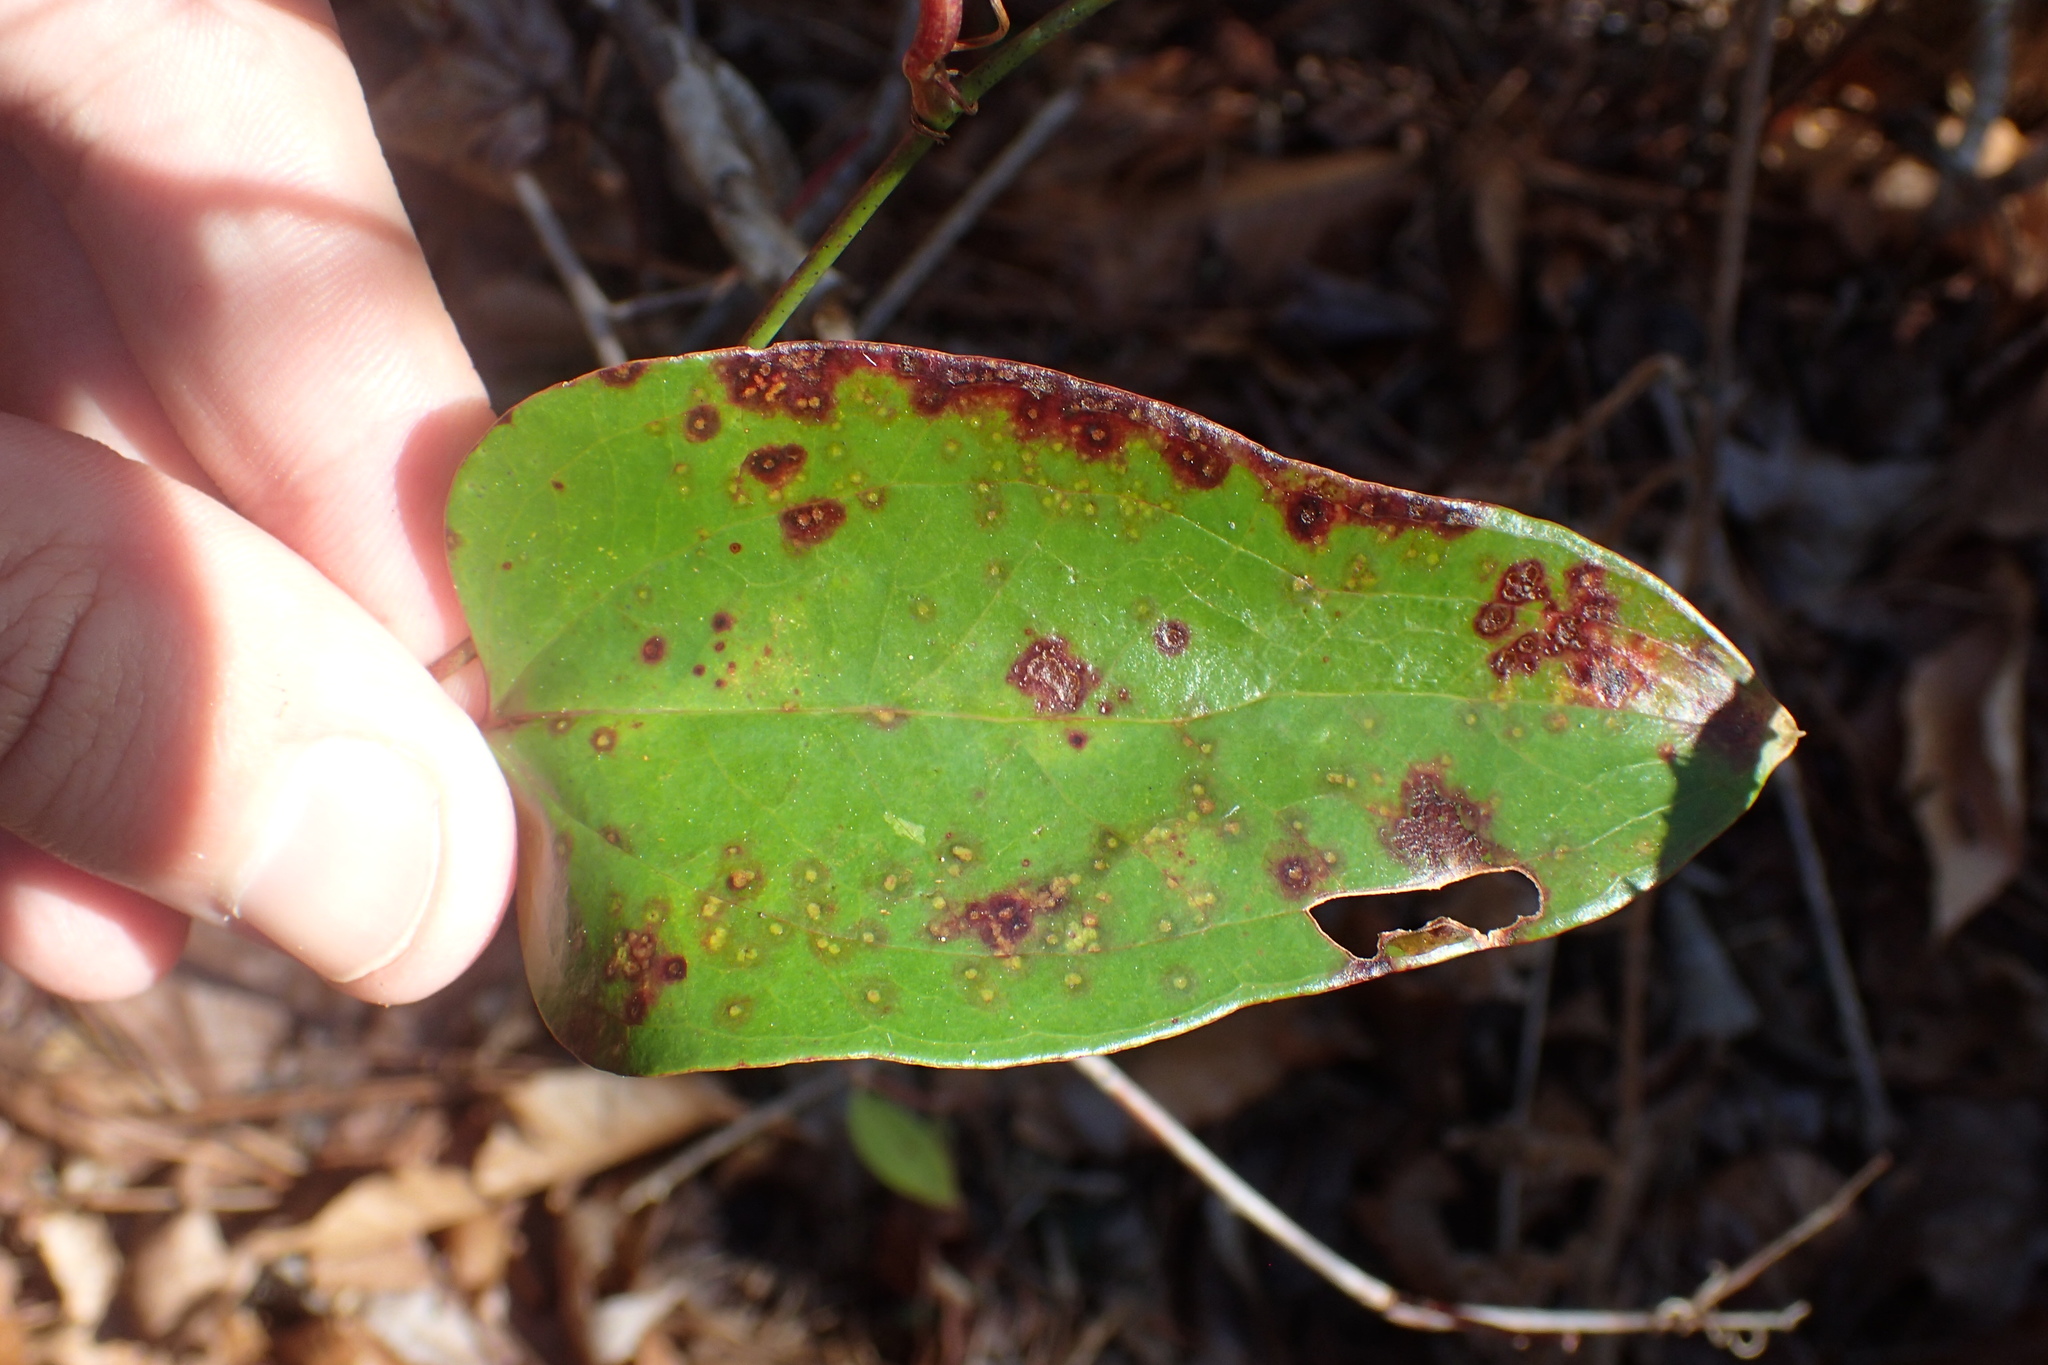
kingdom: Plantae
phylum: Tracheophyta
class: Liliopsida
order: Liliales
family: Smilacaceae
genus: Smilax
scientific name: Smilax glauca
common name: Cat greenbrier
